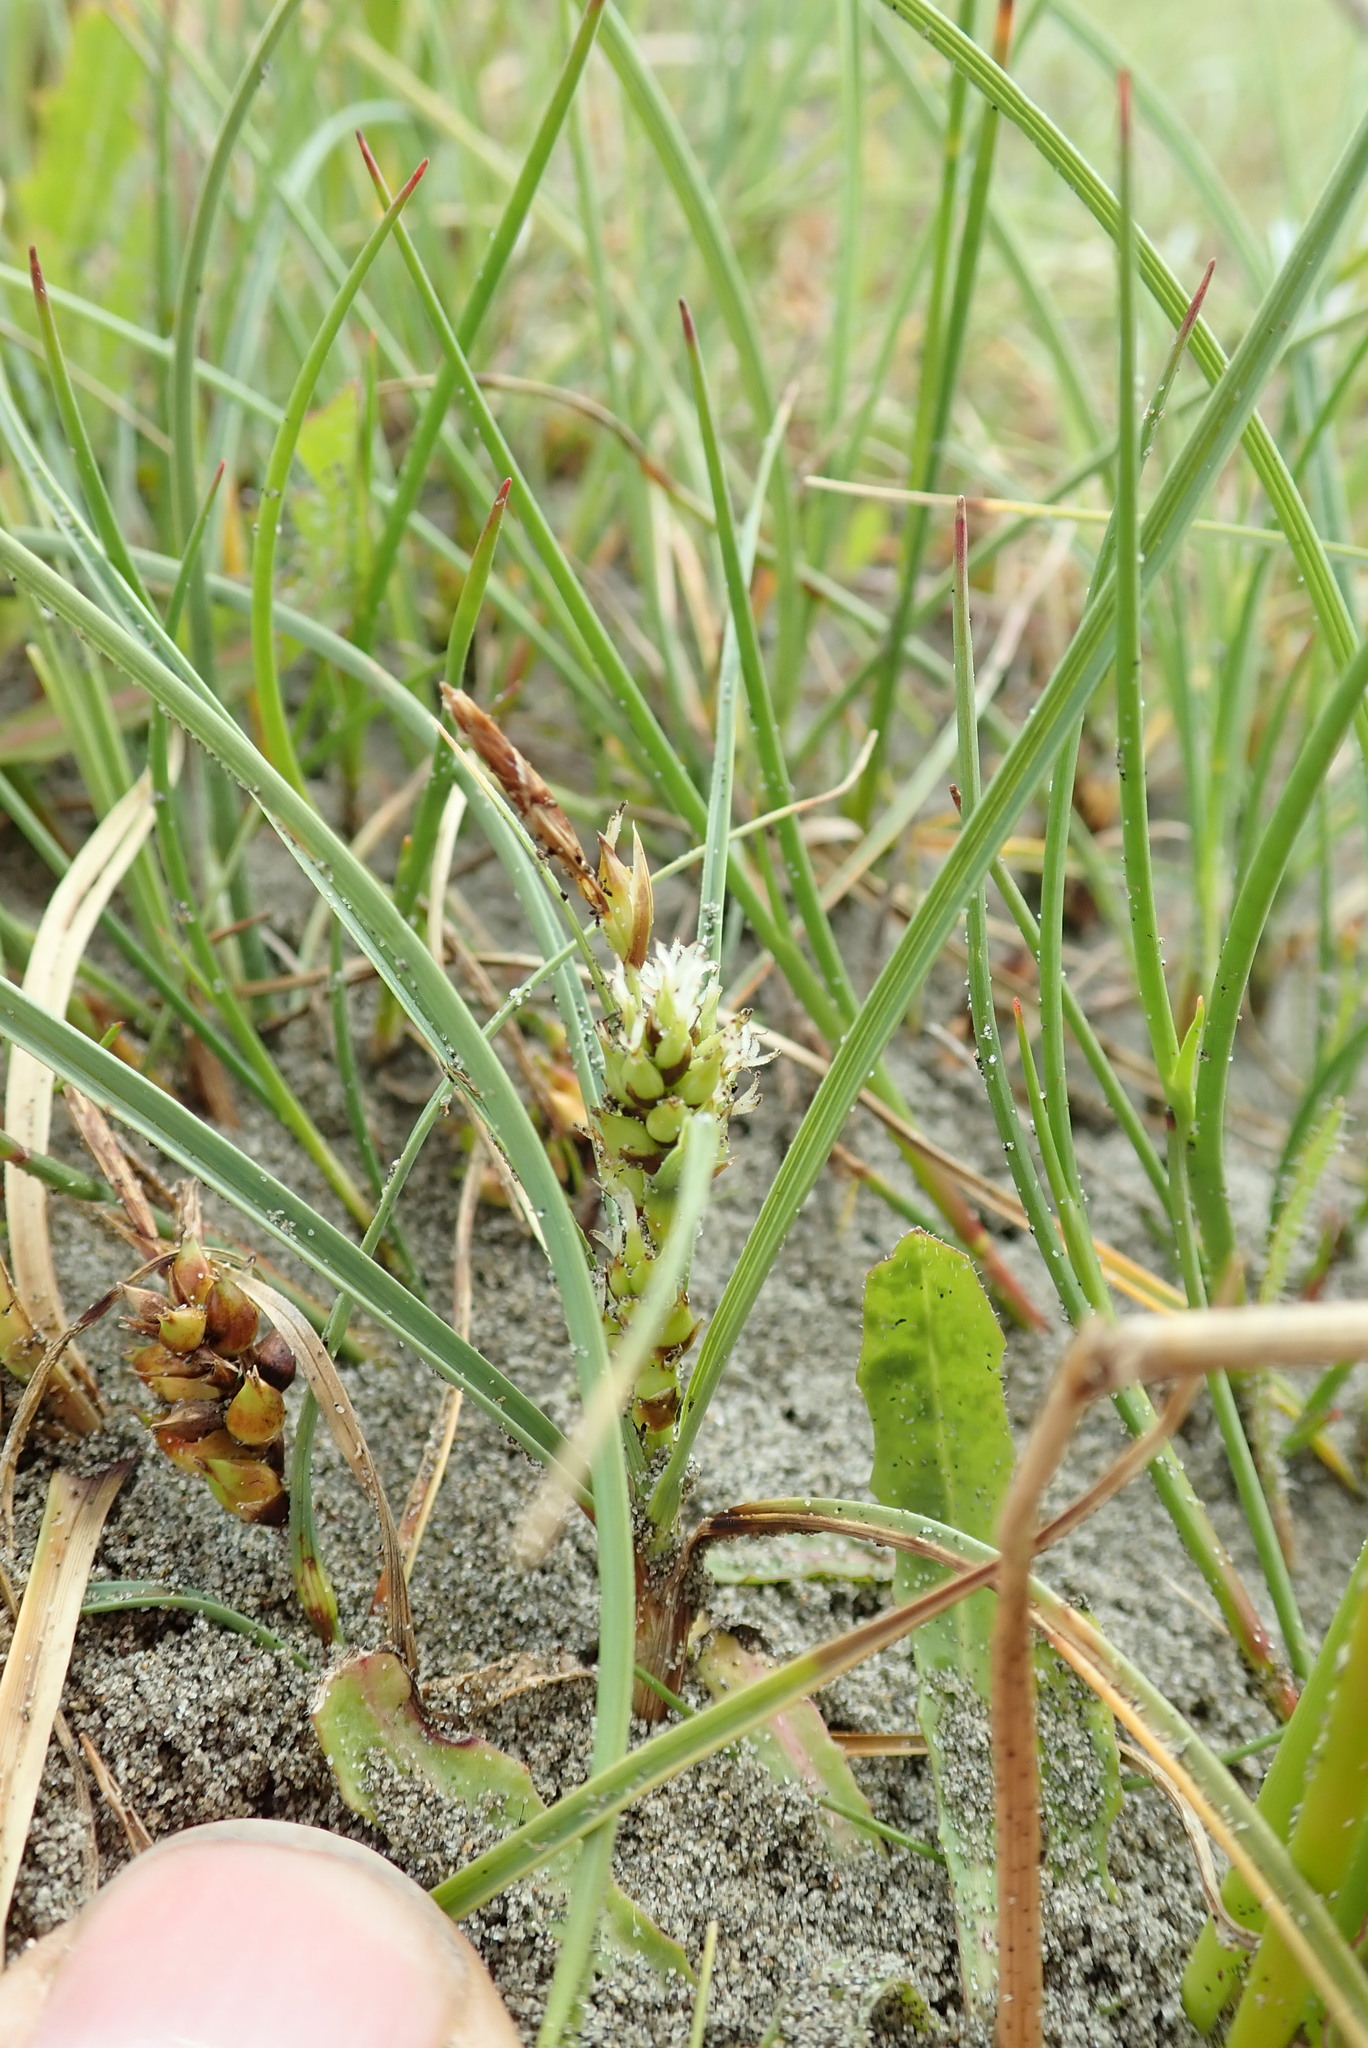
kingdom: Plantae
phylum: Tracheophyta
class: Liliopsida
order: Poales
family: Cyperaceae
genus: Carex
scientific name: Carex pumila
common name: Dwarf sedge
